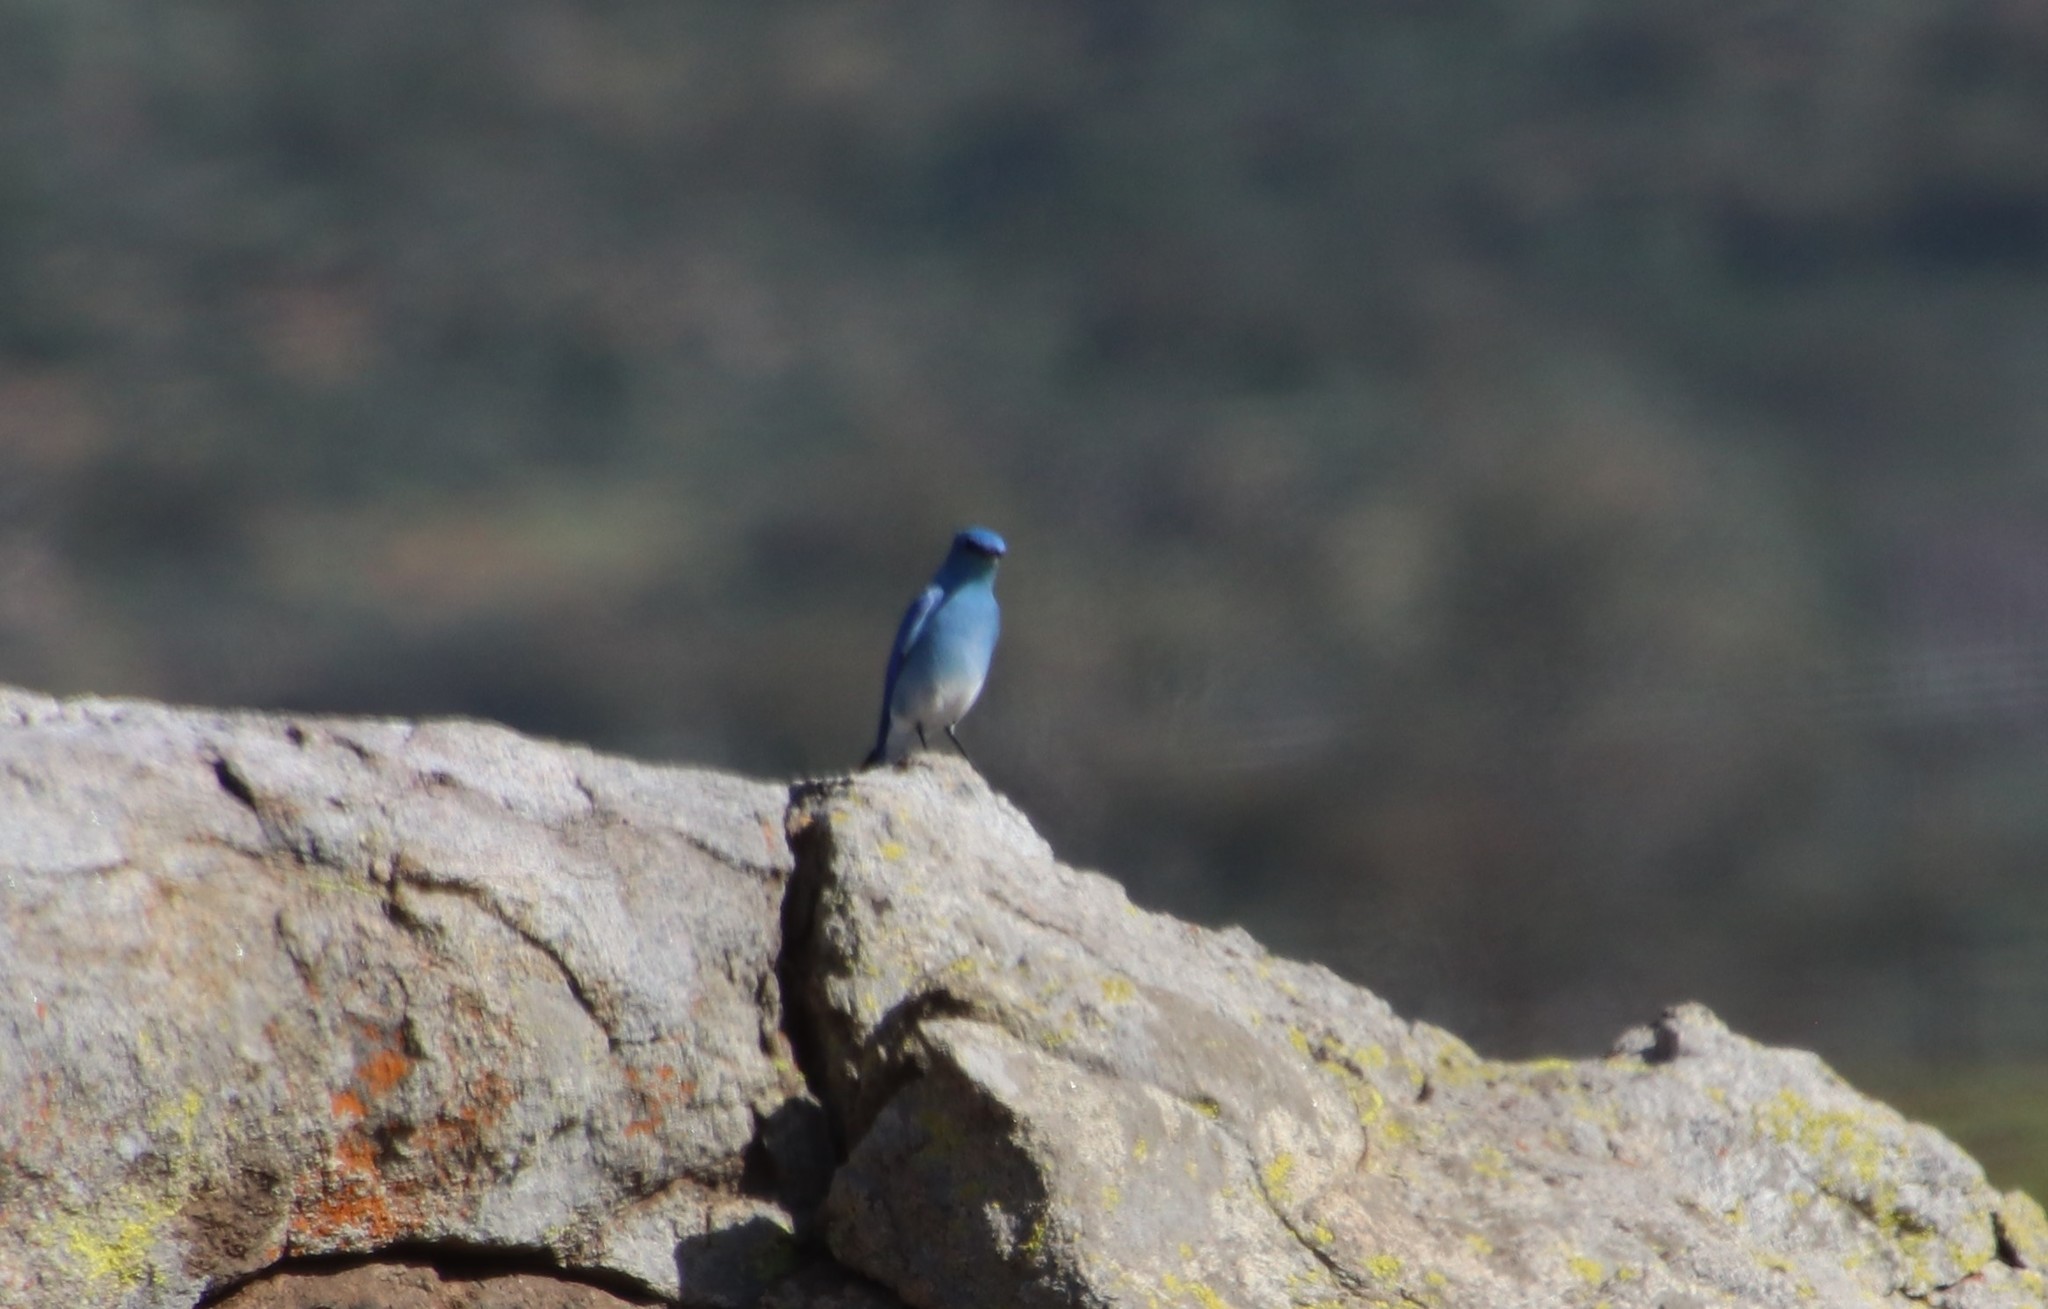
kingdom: Animalia
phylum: Chordata
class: Aves
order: Passeriformes
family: Turdidae
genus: Sialia
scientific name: Sialia currucoides
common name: Mountain bluebird
